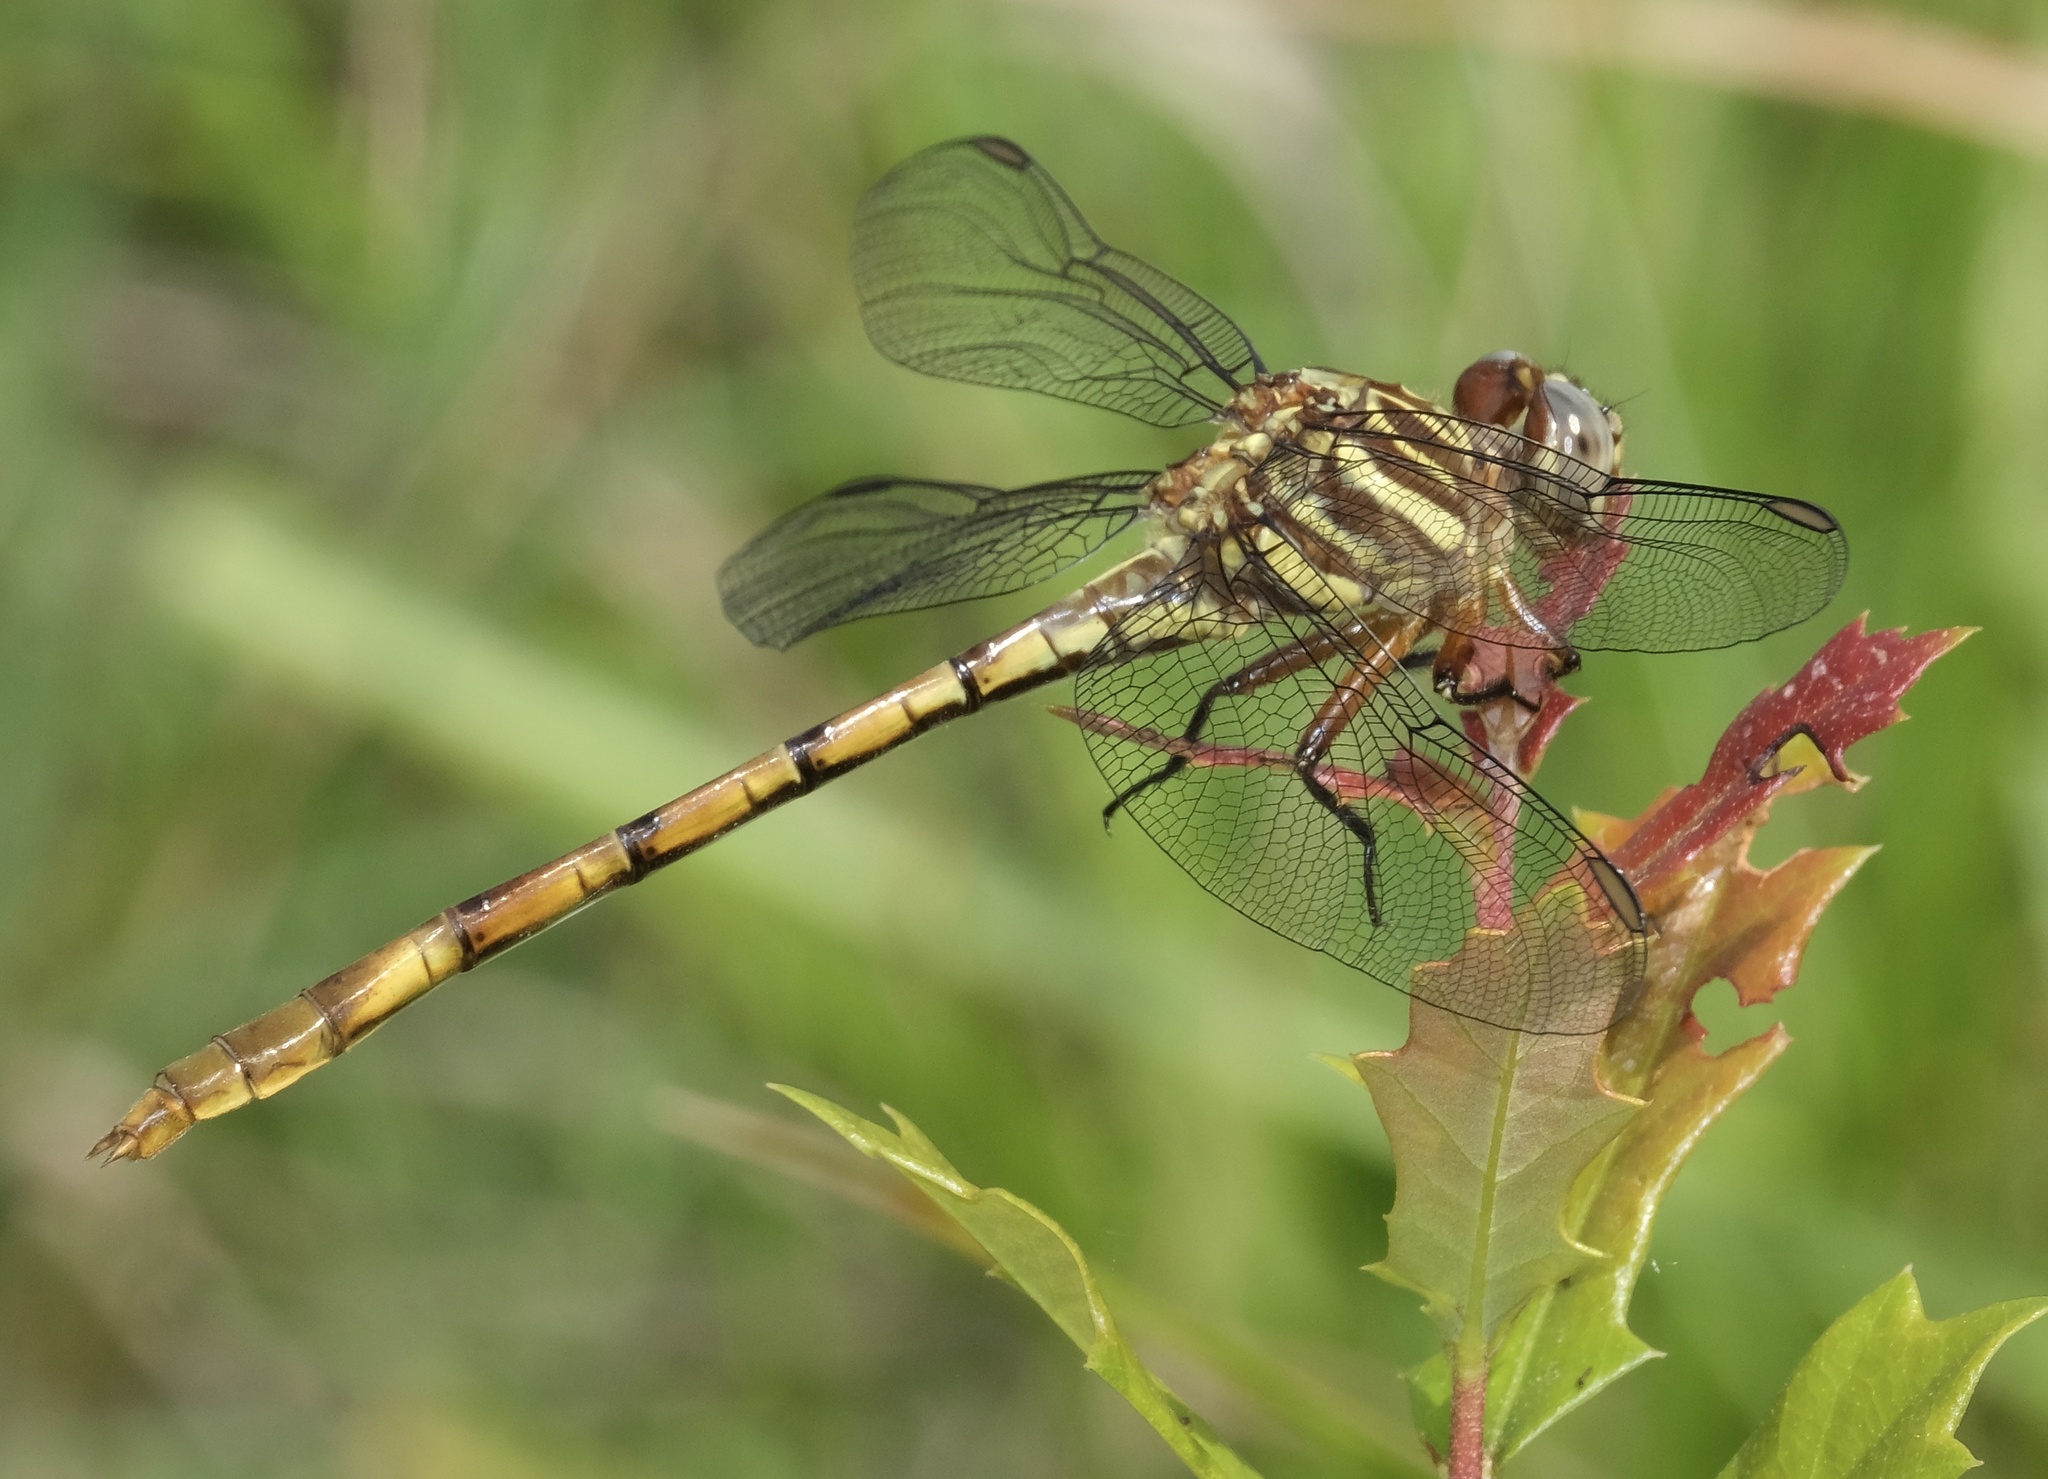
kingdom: Animalia
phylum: Arthropoda
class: Insecta
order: Odonata
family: Gomphidae
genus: Aphylla
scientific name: Aphylla angustifolia
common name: Broad-striped forceptail
